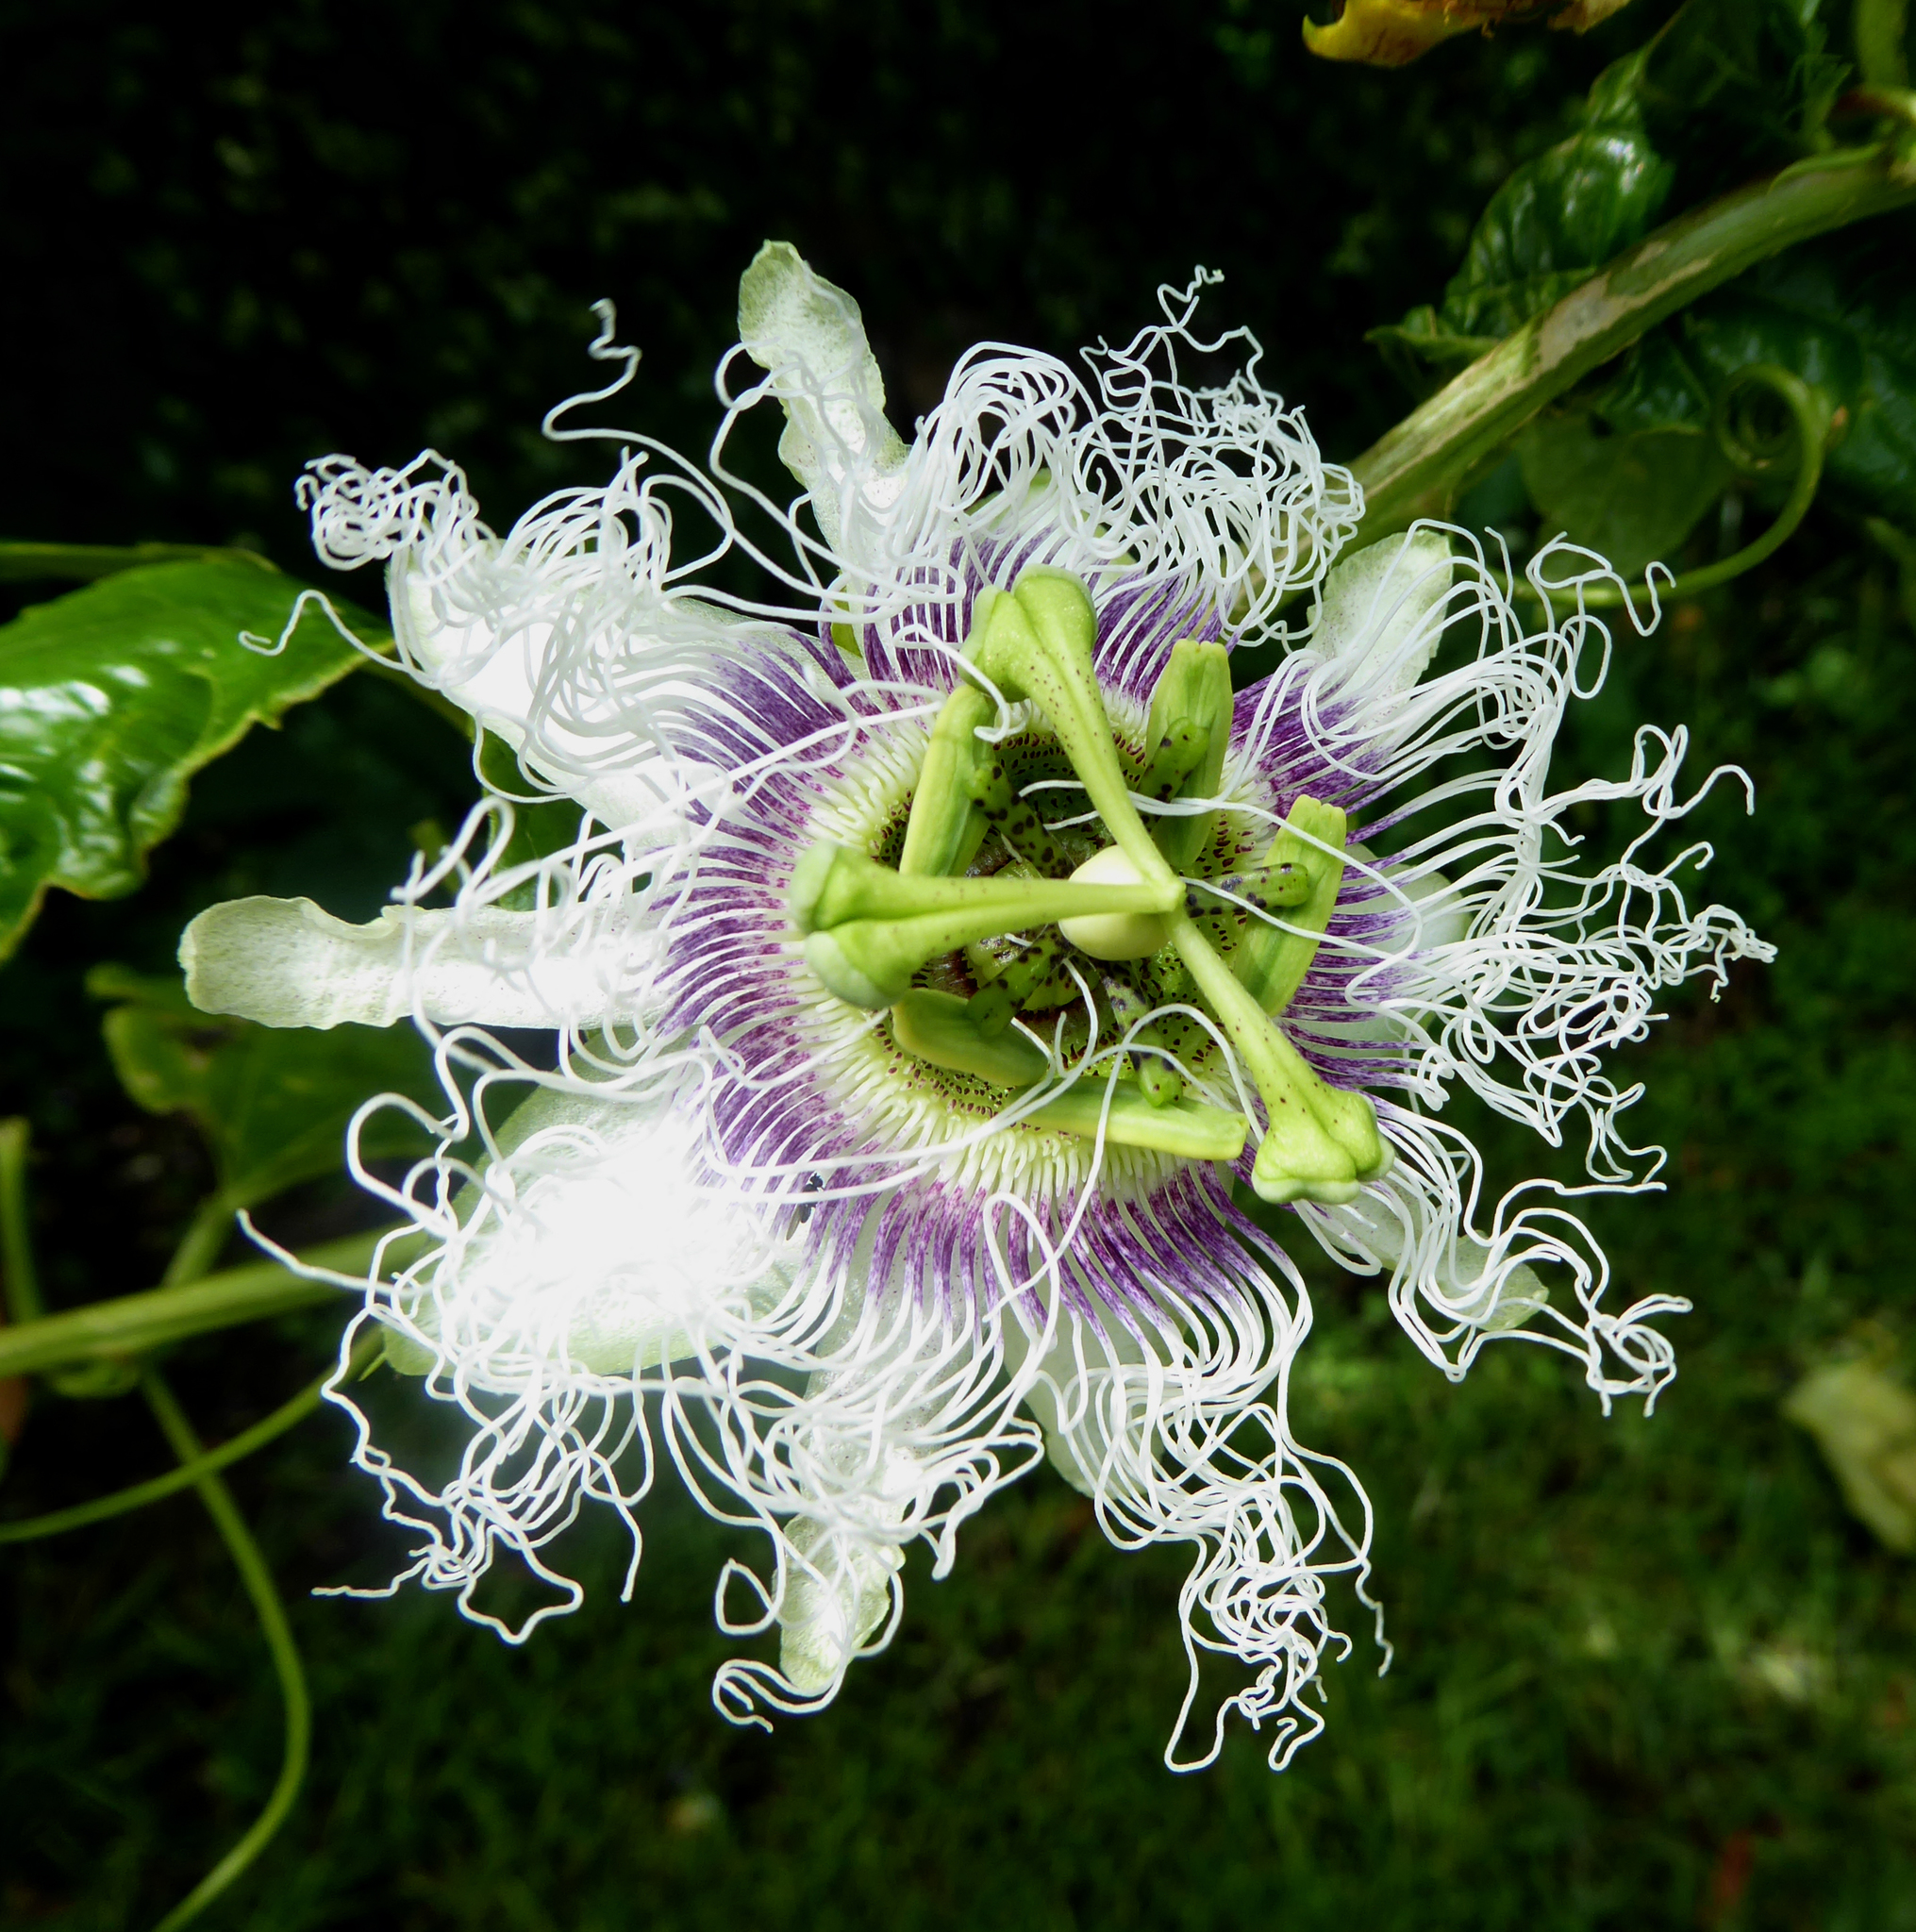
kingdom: Plantae
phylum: Tracheophyta
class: Magnoliopsida
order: Malpighiales
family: Passifloraceae
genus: Passiflora
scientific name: Passiflora edulis
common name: Purple granadilla
